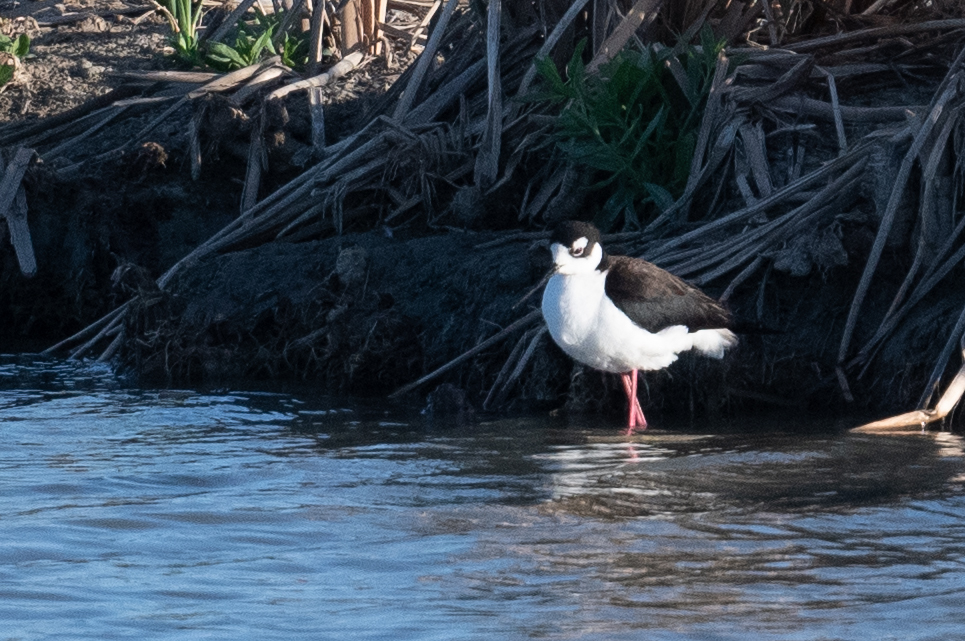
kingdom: Animalia
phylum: Chordata
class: Aves
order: Charadriiformes
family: Recurvirostridae
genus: Himantopus
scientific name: Himantopus mexicanus
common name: Black-necked stilt
